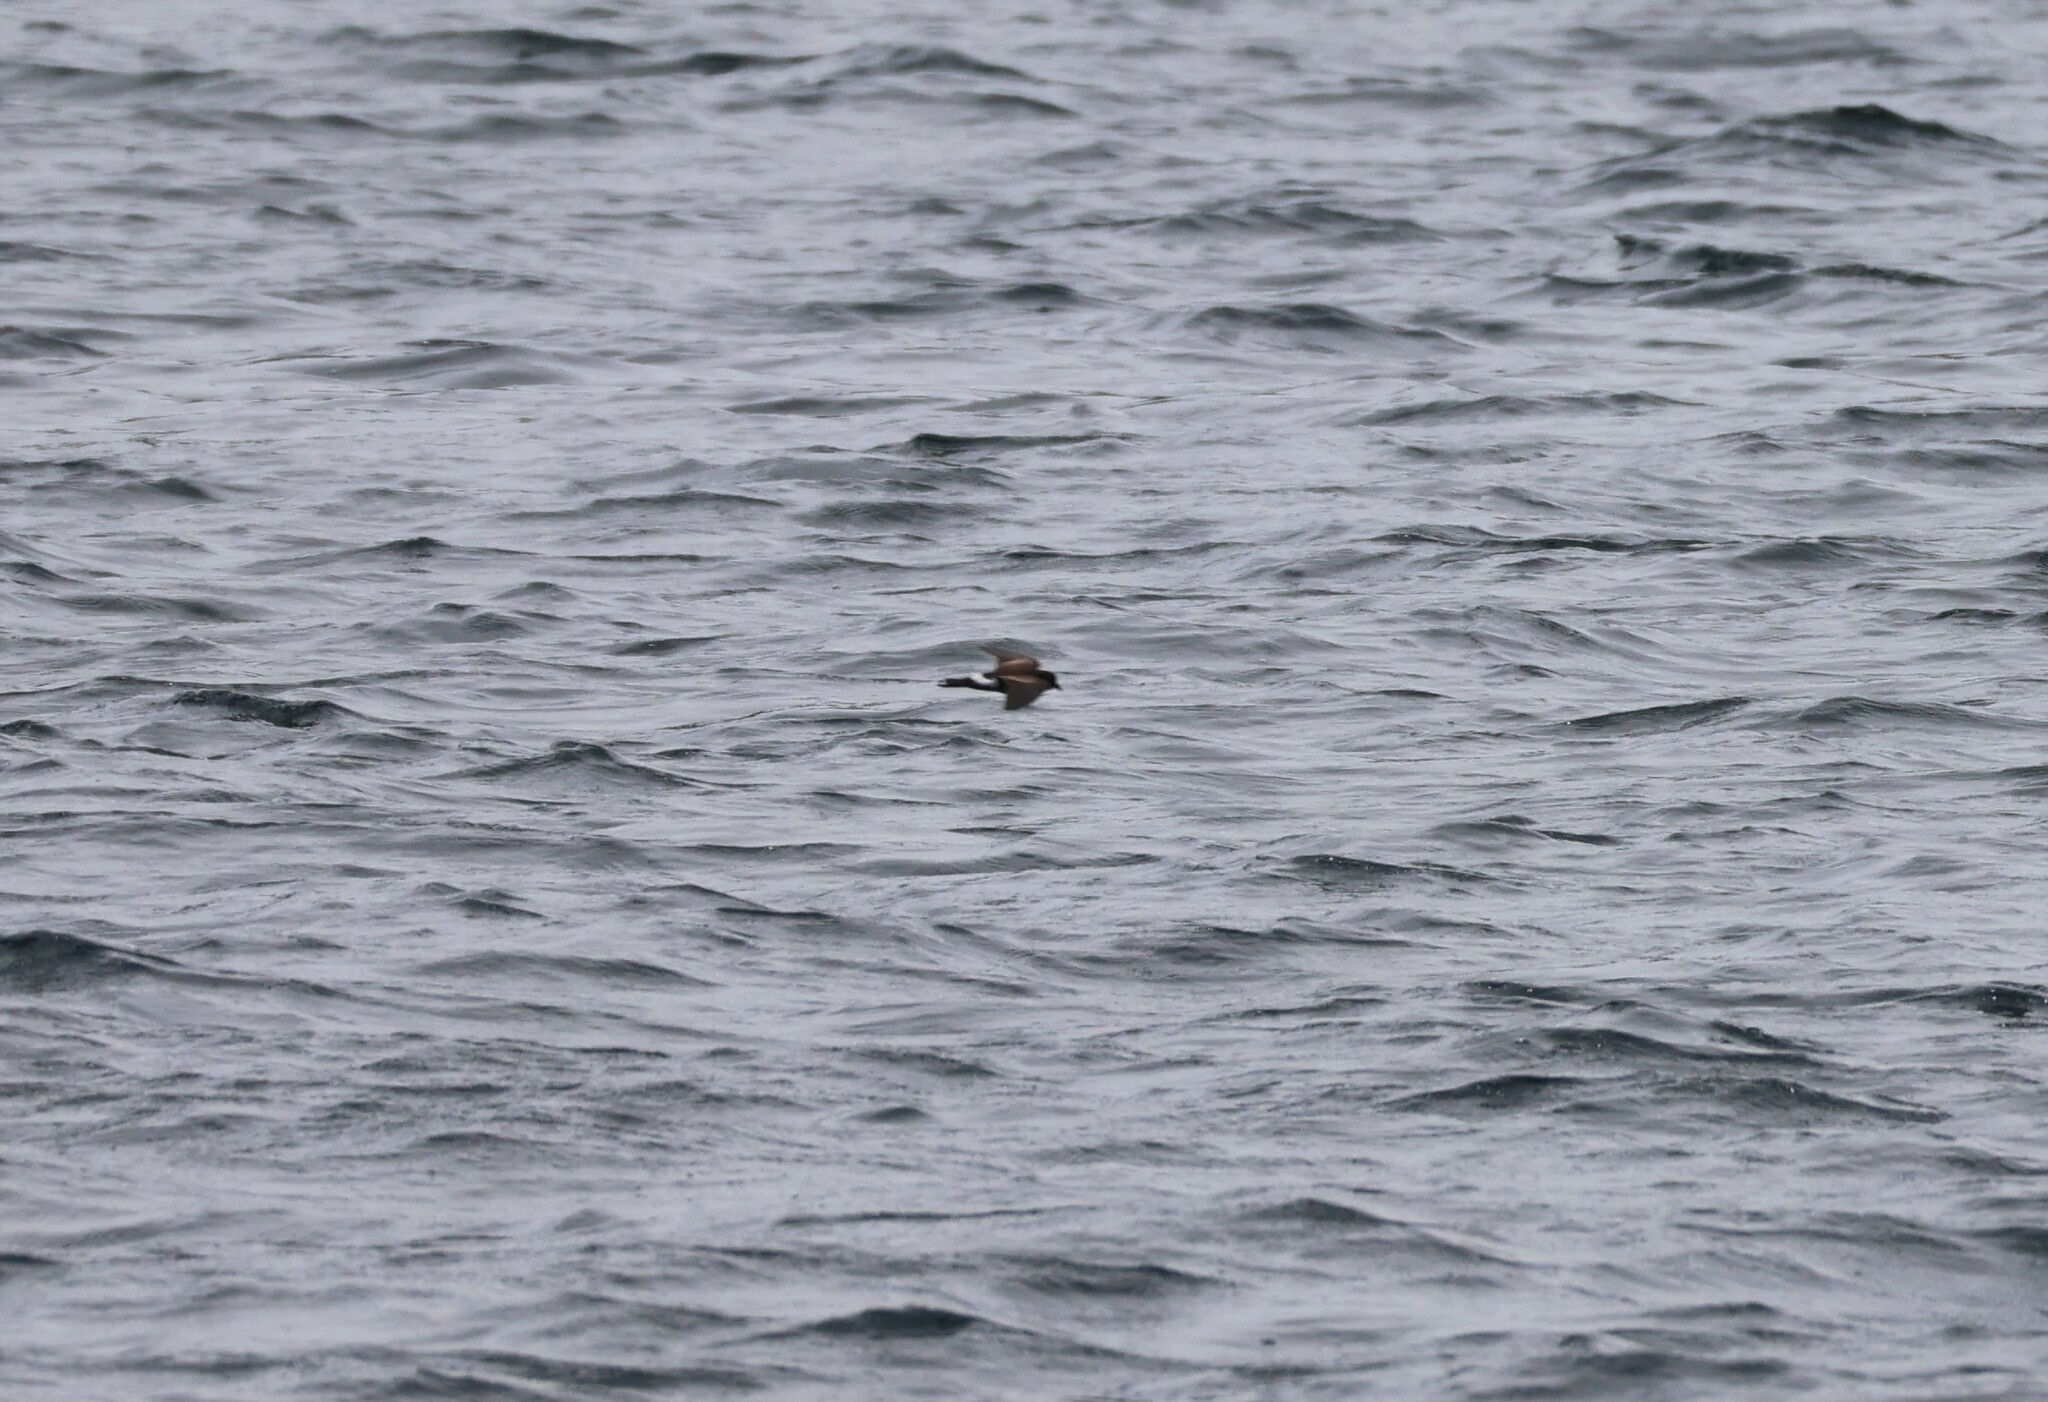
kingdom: Animalia
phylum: Chordata
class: Aves
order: Procellariiformes
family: Hydrobatidae
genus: Oceanites
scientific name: Oceanites gracilis
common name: Elliot's storm-petrel
